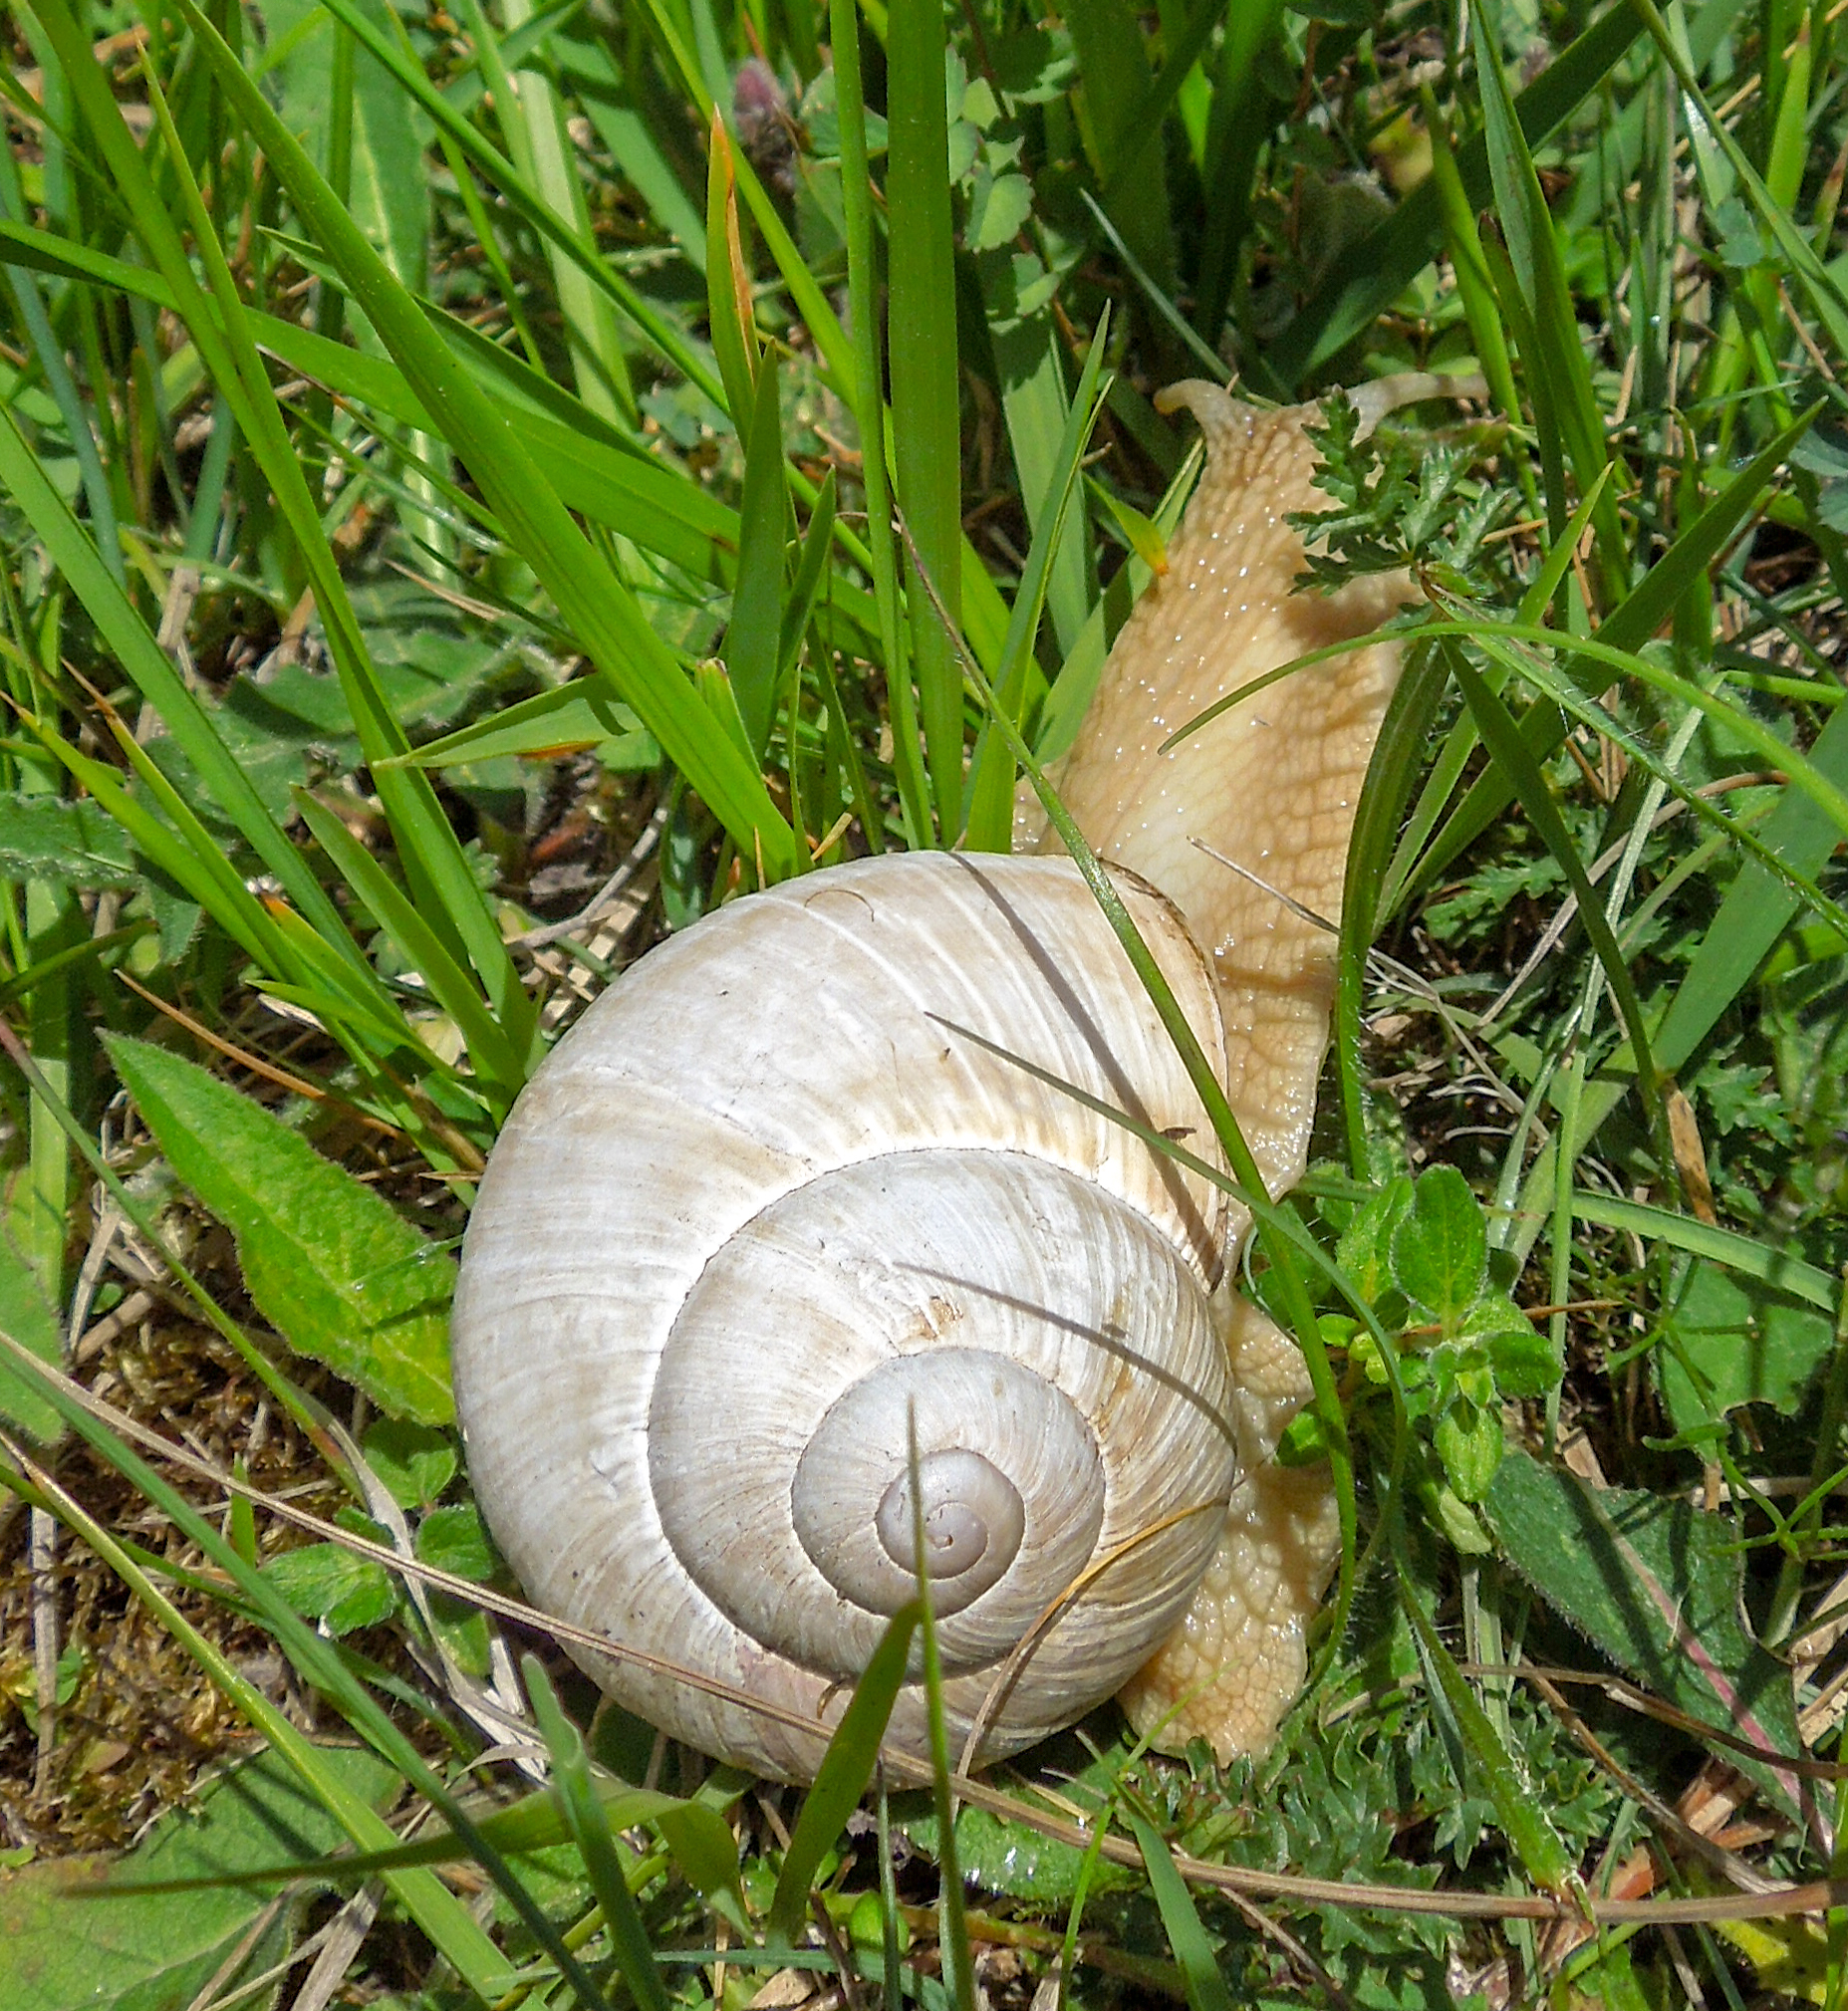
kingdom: Animalia
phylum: Mollusca
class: Gastropoda
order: Stylommatophora
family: Helicidae
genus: Helix
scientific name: Helix pomatia
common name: Roman snail
